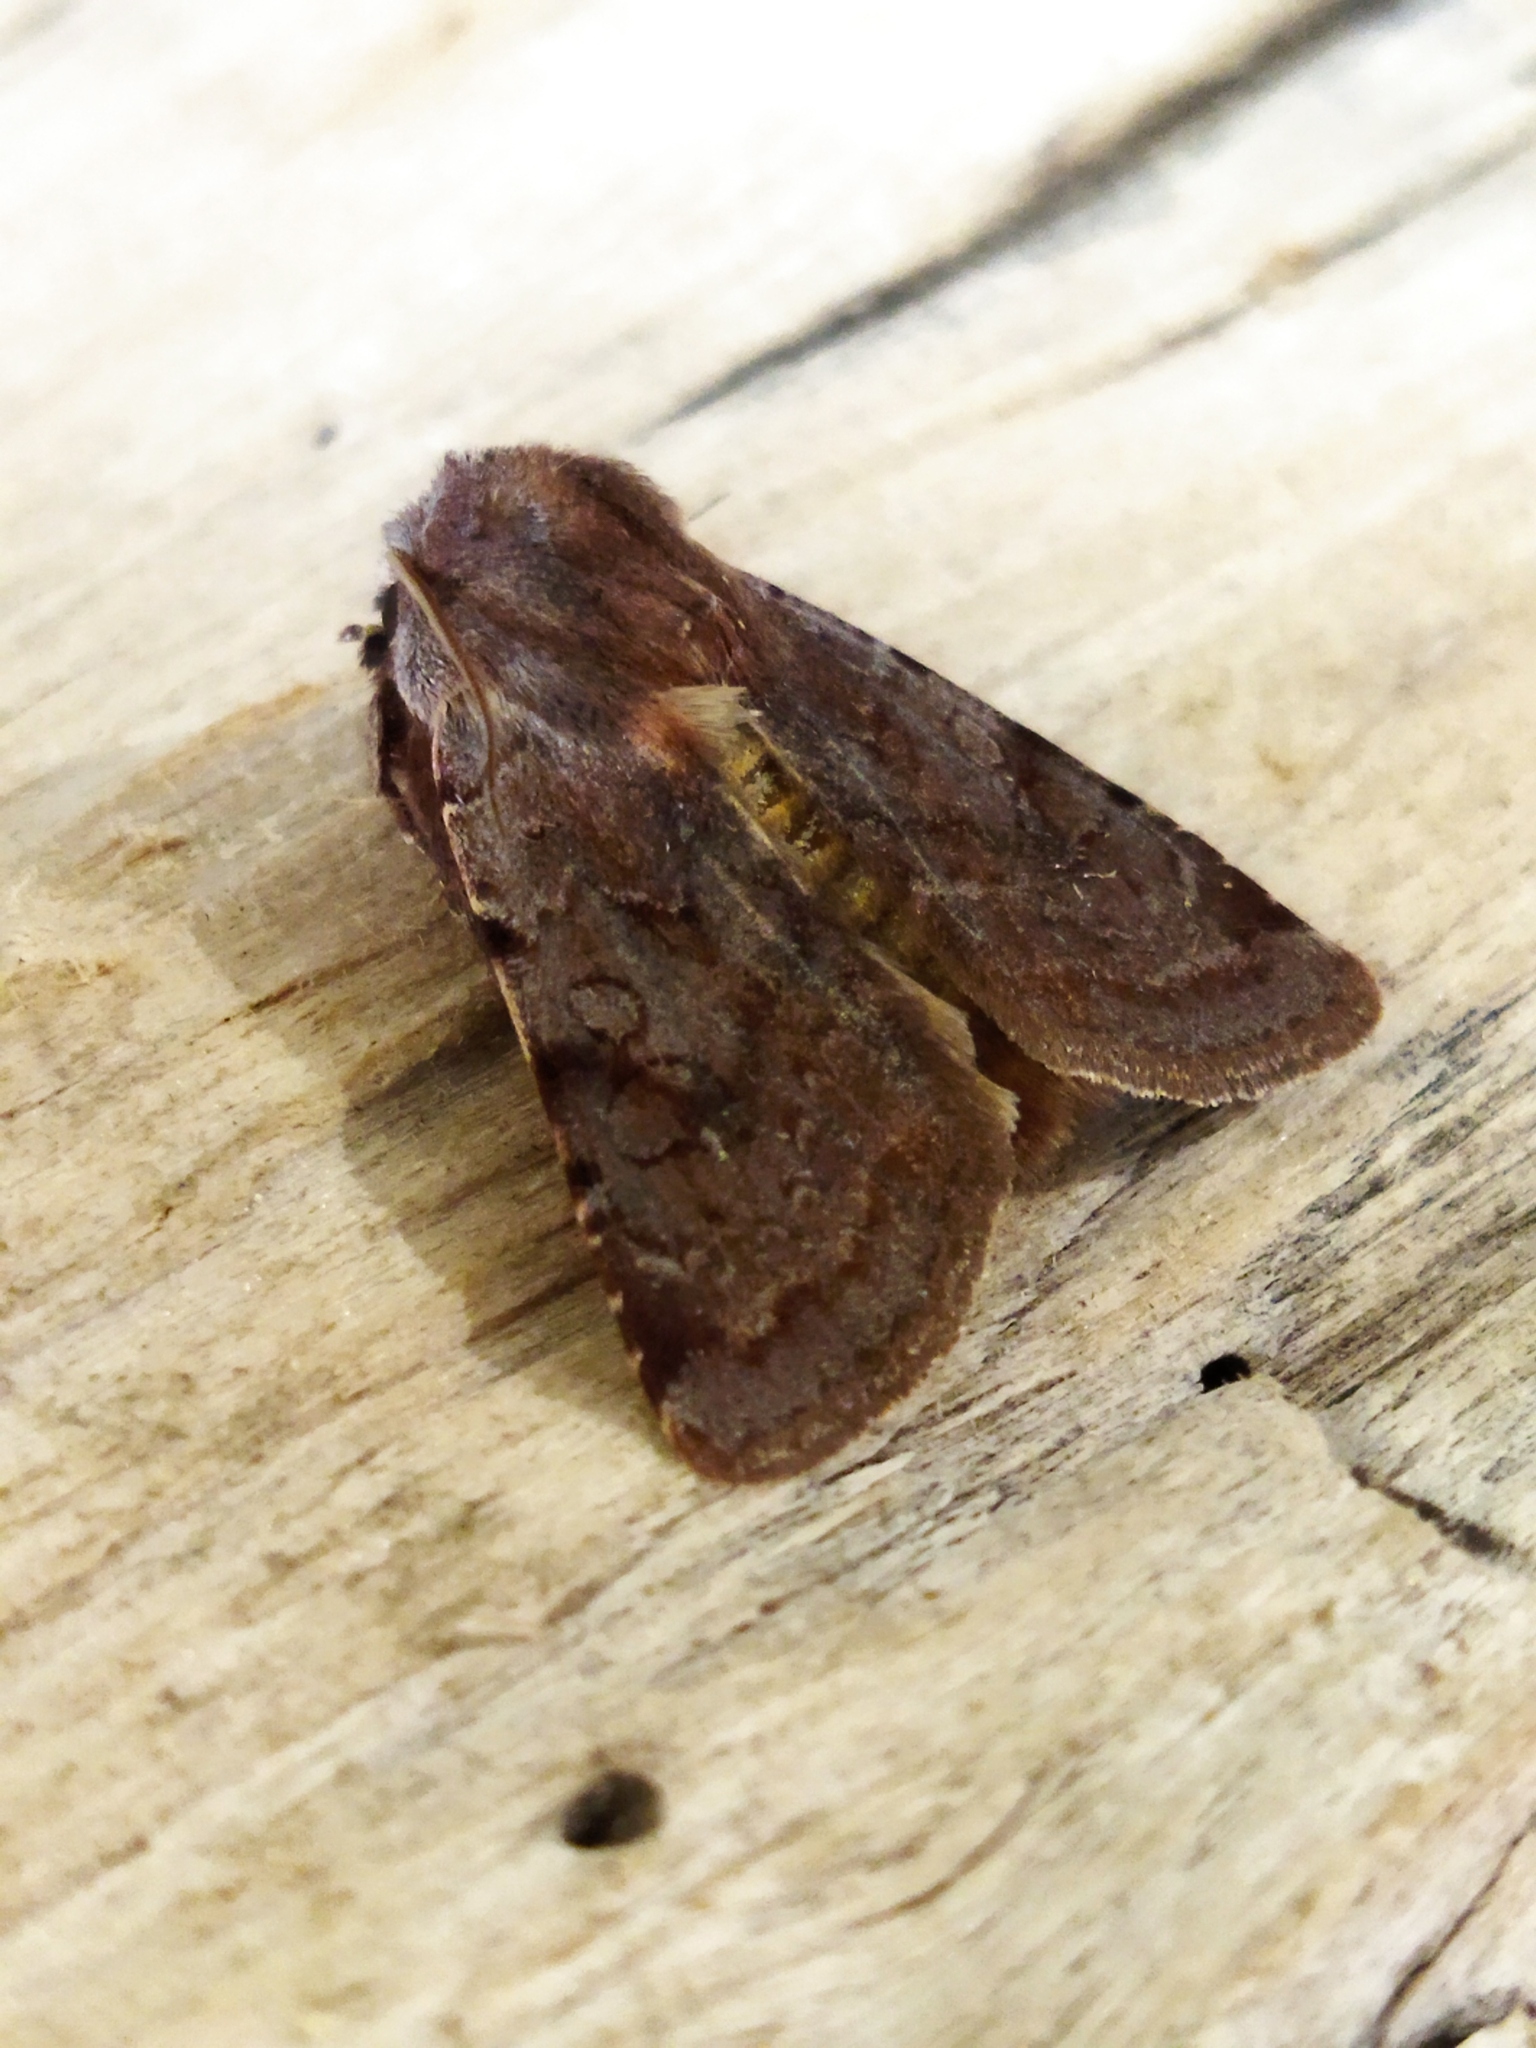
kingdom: Animalia
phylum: Arthropoda
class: Insecta
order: Lepidoptera
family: Noctuidae
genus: Cerastis
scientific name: Cerastis rubricosa
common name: Red chestnut
